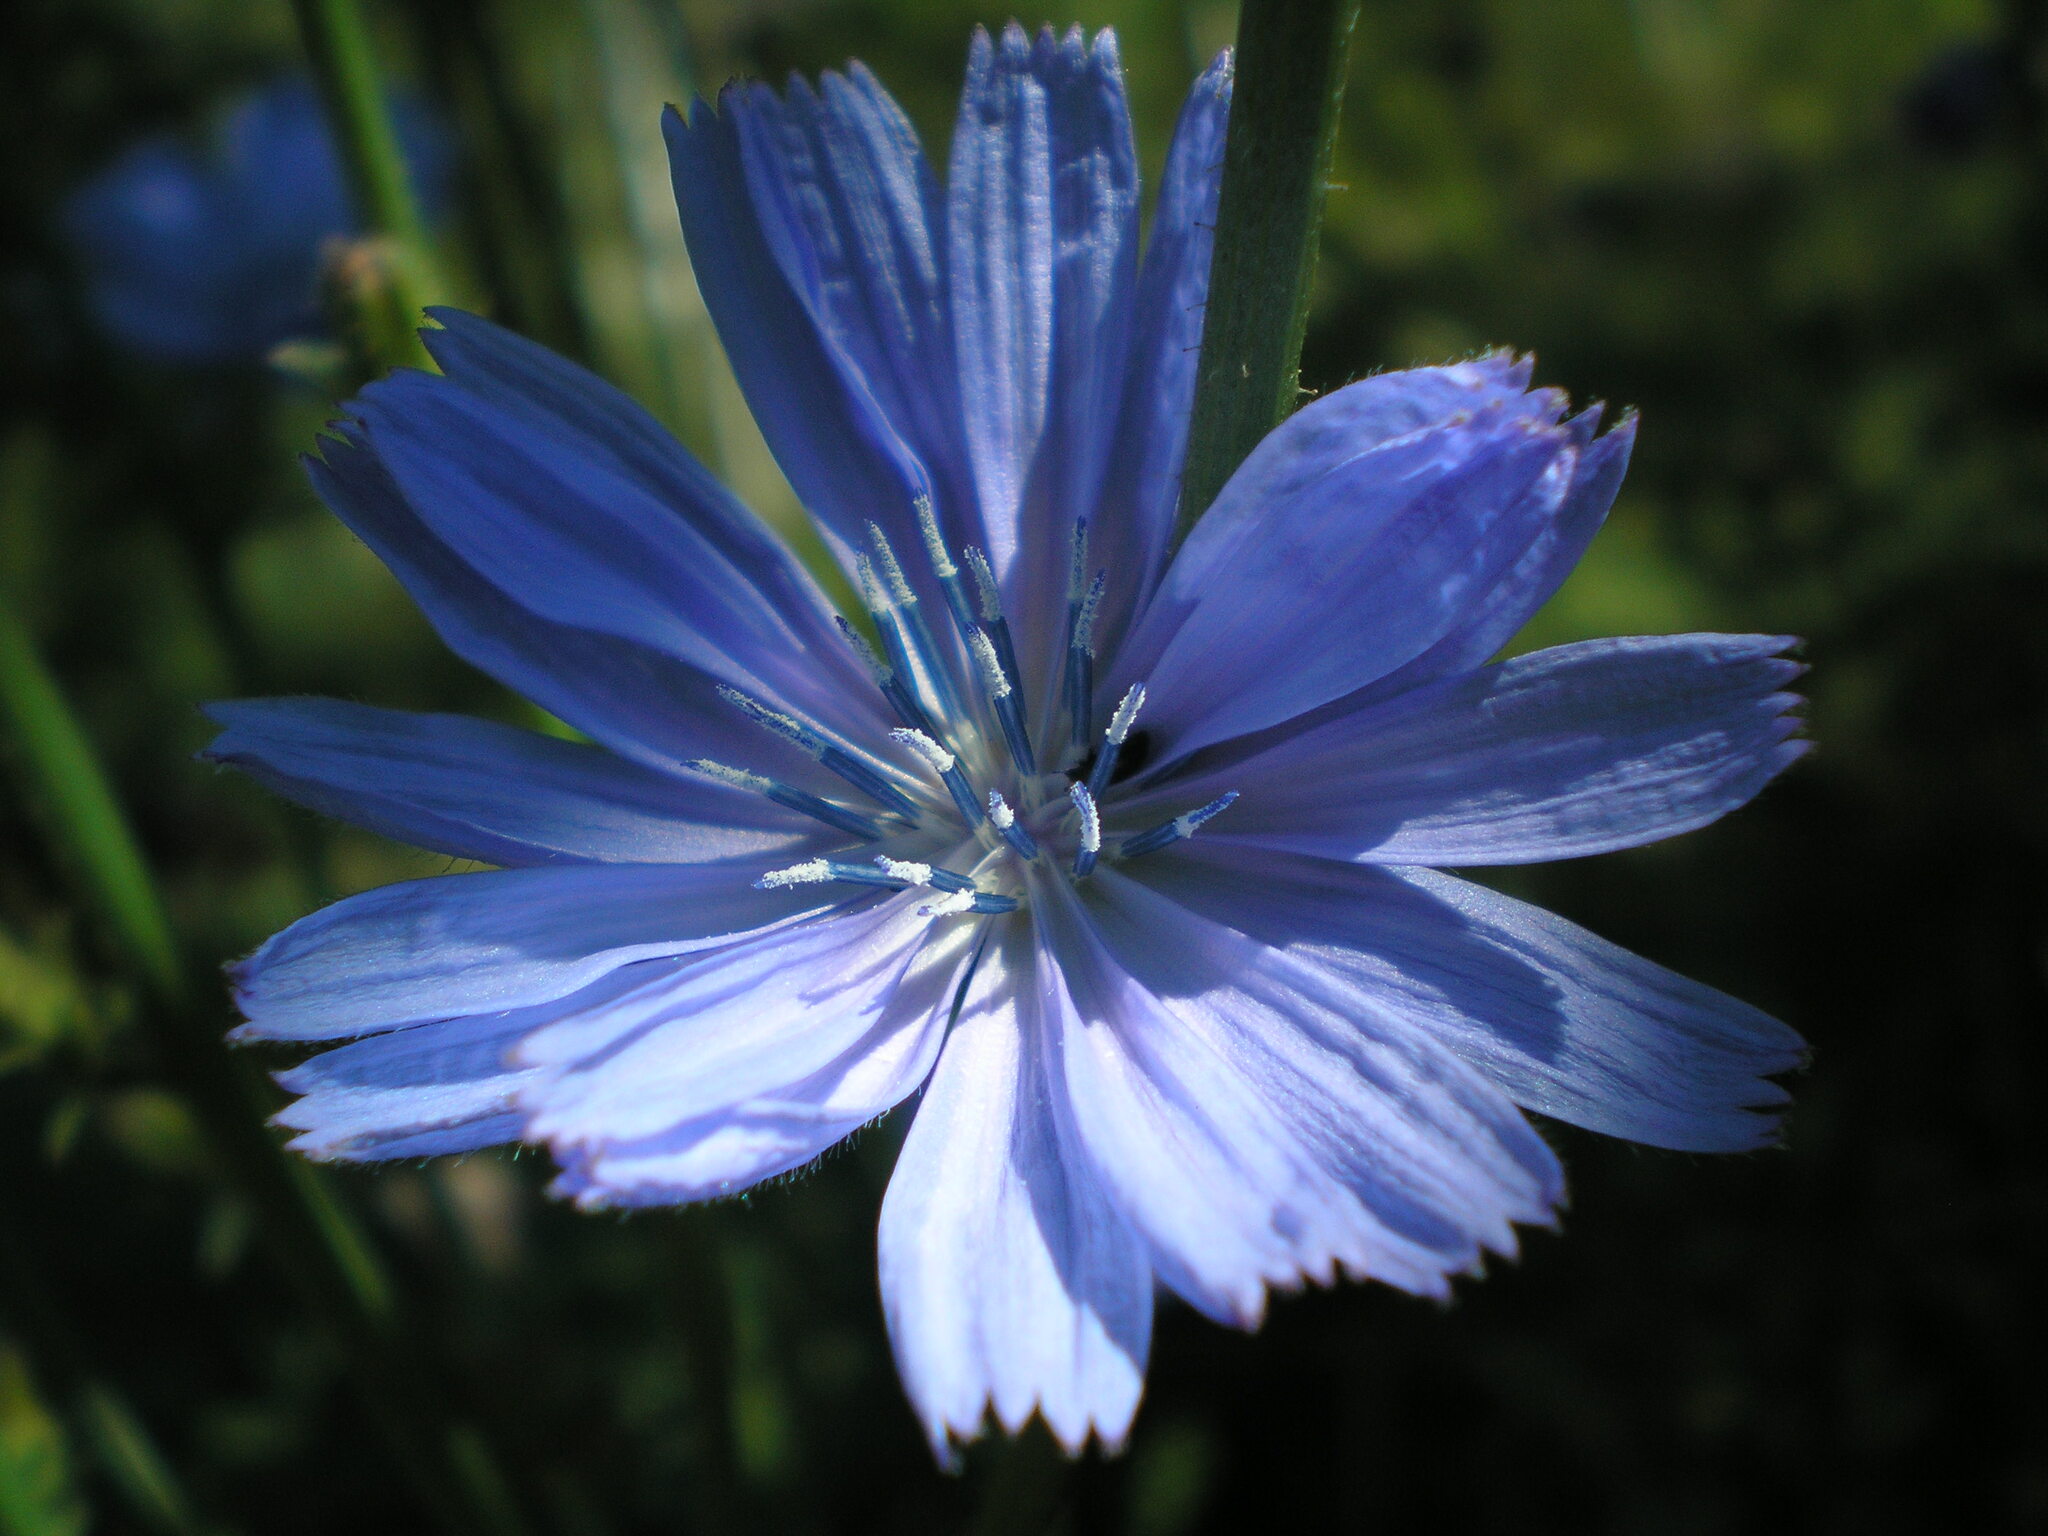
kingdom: Plantae
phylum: Tracheophyta
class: Magnoliopsida
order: Asterales
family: Asteraceae
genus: Cichorium
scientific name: Cichorium intybus
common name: Chicory
